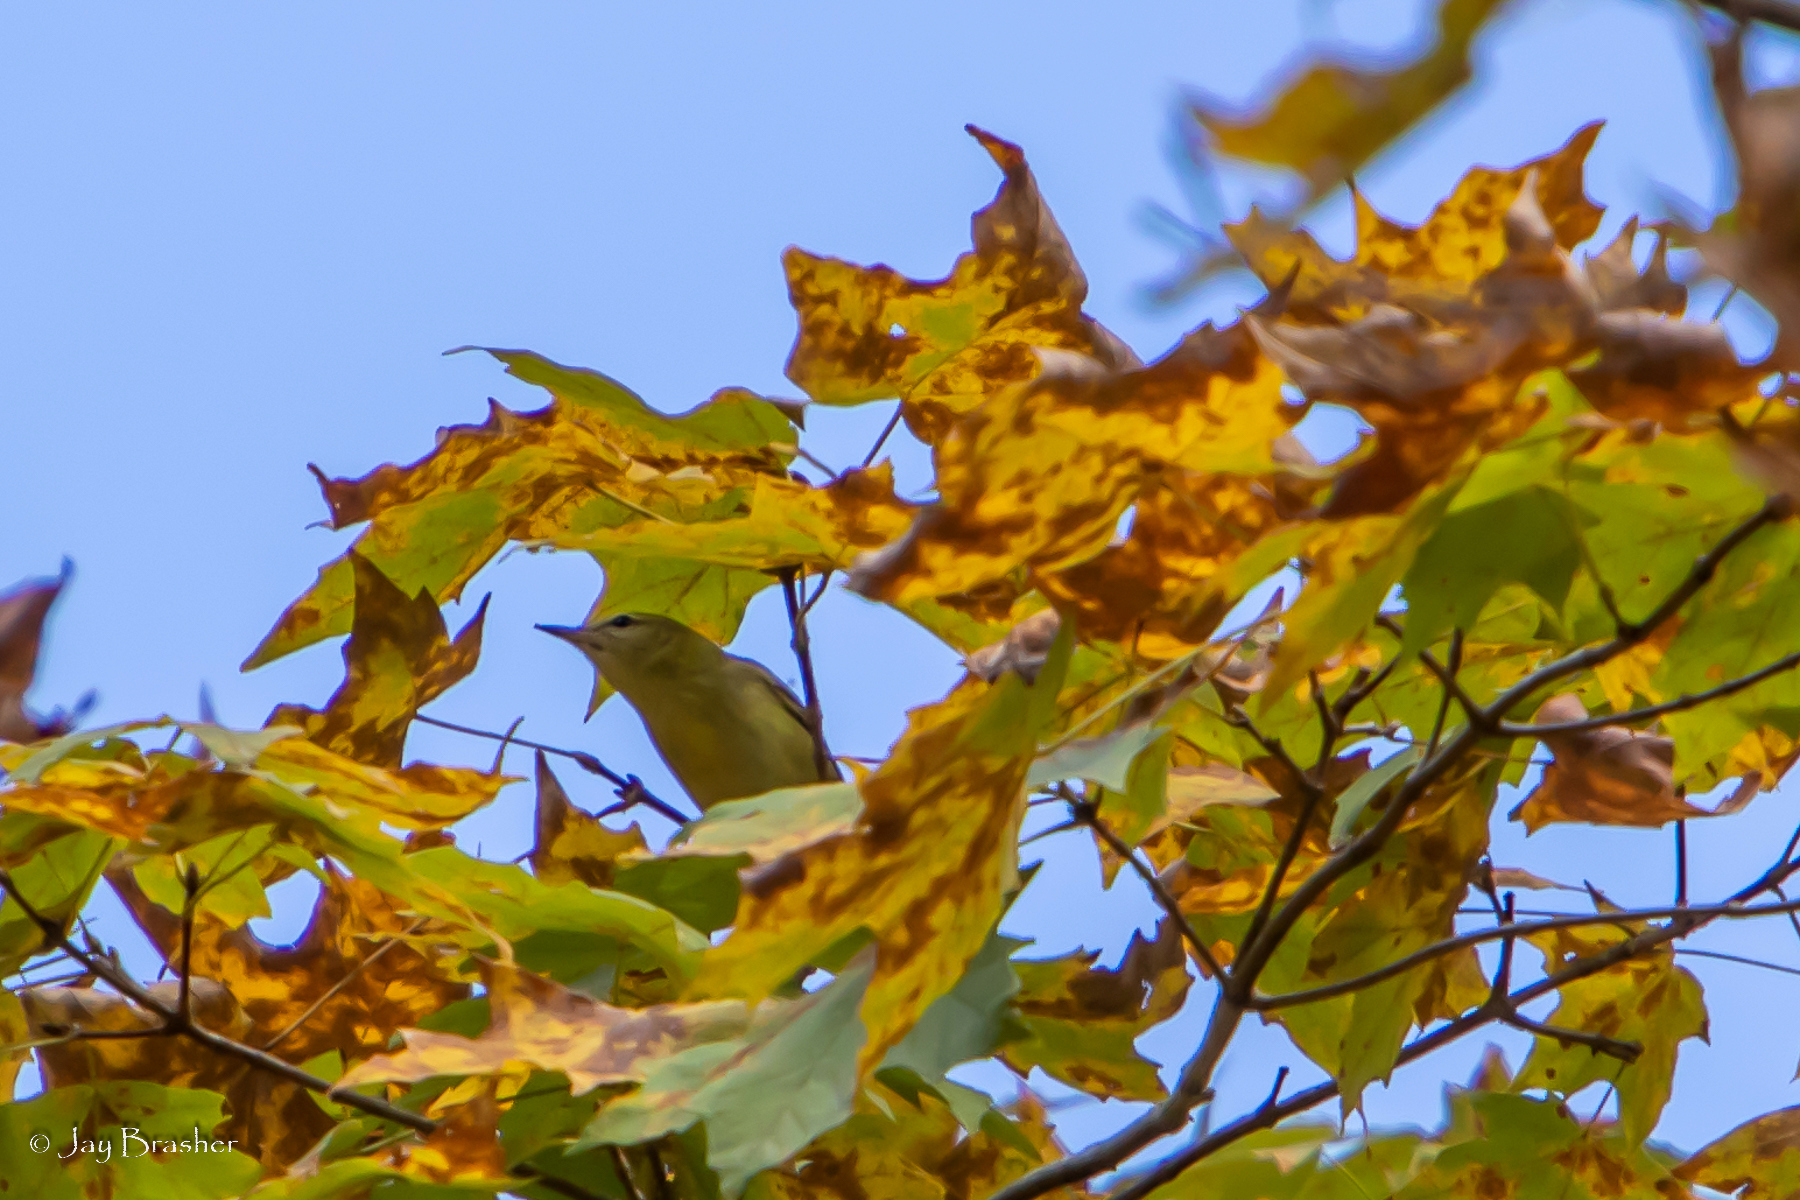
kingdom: Animalia
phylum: Chordata
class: Aves
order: Passeriformes
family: Parulidae
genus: Leiothlypis
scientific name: Leiothlypis peregrina
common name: Tennessee warbler
